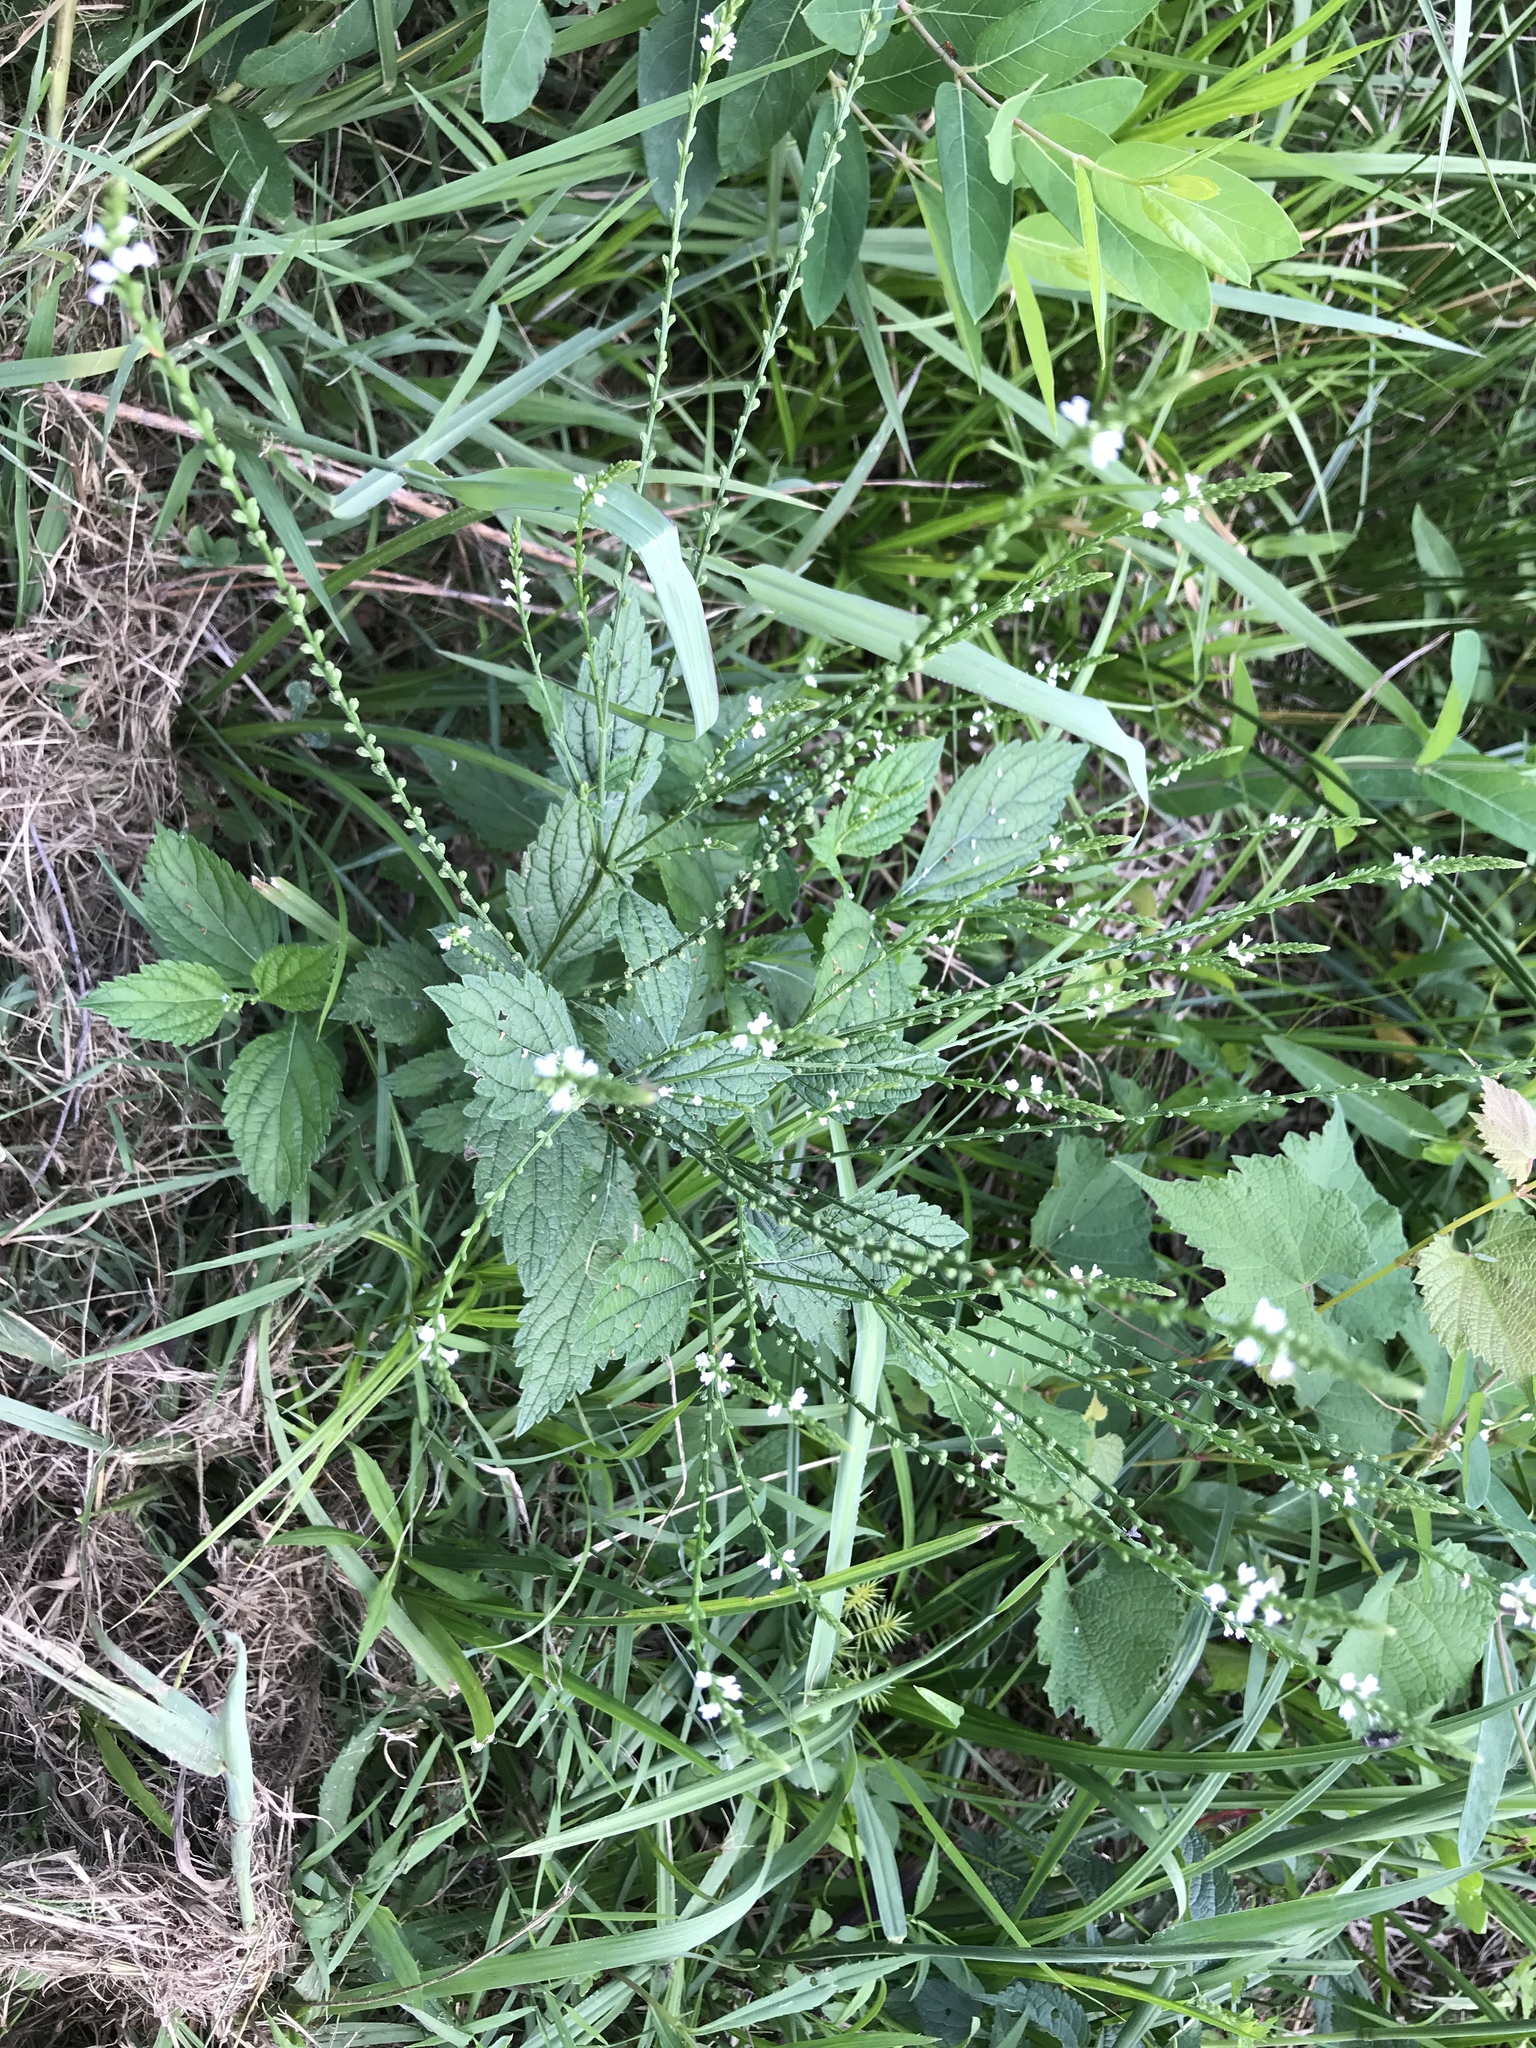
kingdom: Plantae
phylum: Tracheophyta
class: Magnoliopsida
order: Lamiales
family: Verbenaceae
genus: Verbena
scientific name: Verbena urticifolia
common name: Nettle-leaved vervain
